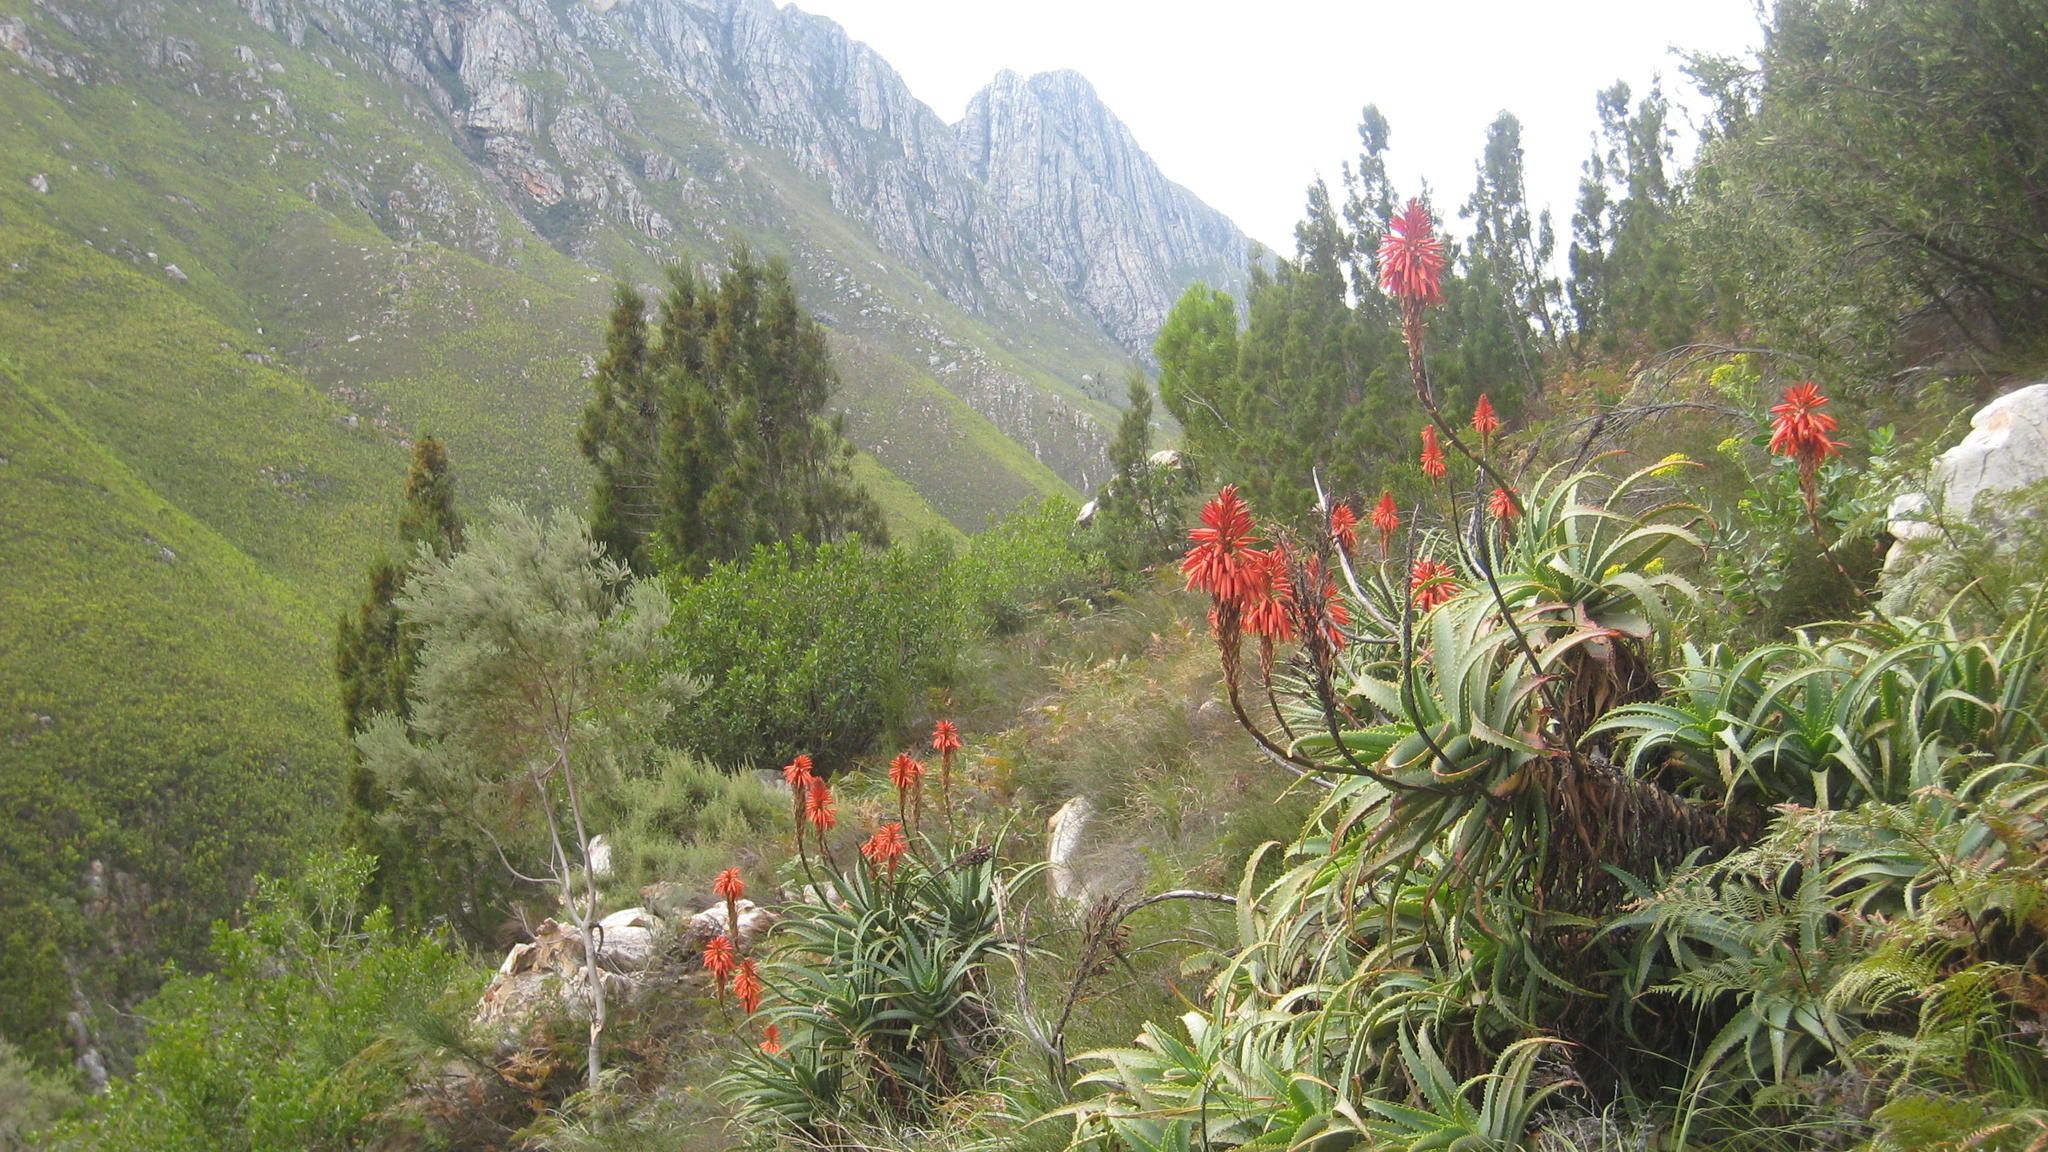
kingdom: Plantae
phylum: Tracheophyta
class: Pinopsida
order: Pinales
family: Cupressaceae
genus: Widdringtonia
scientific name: Widdringtonia nodiflora
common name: Cape cypress
